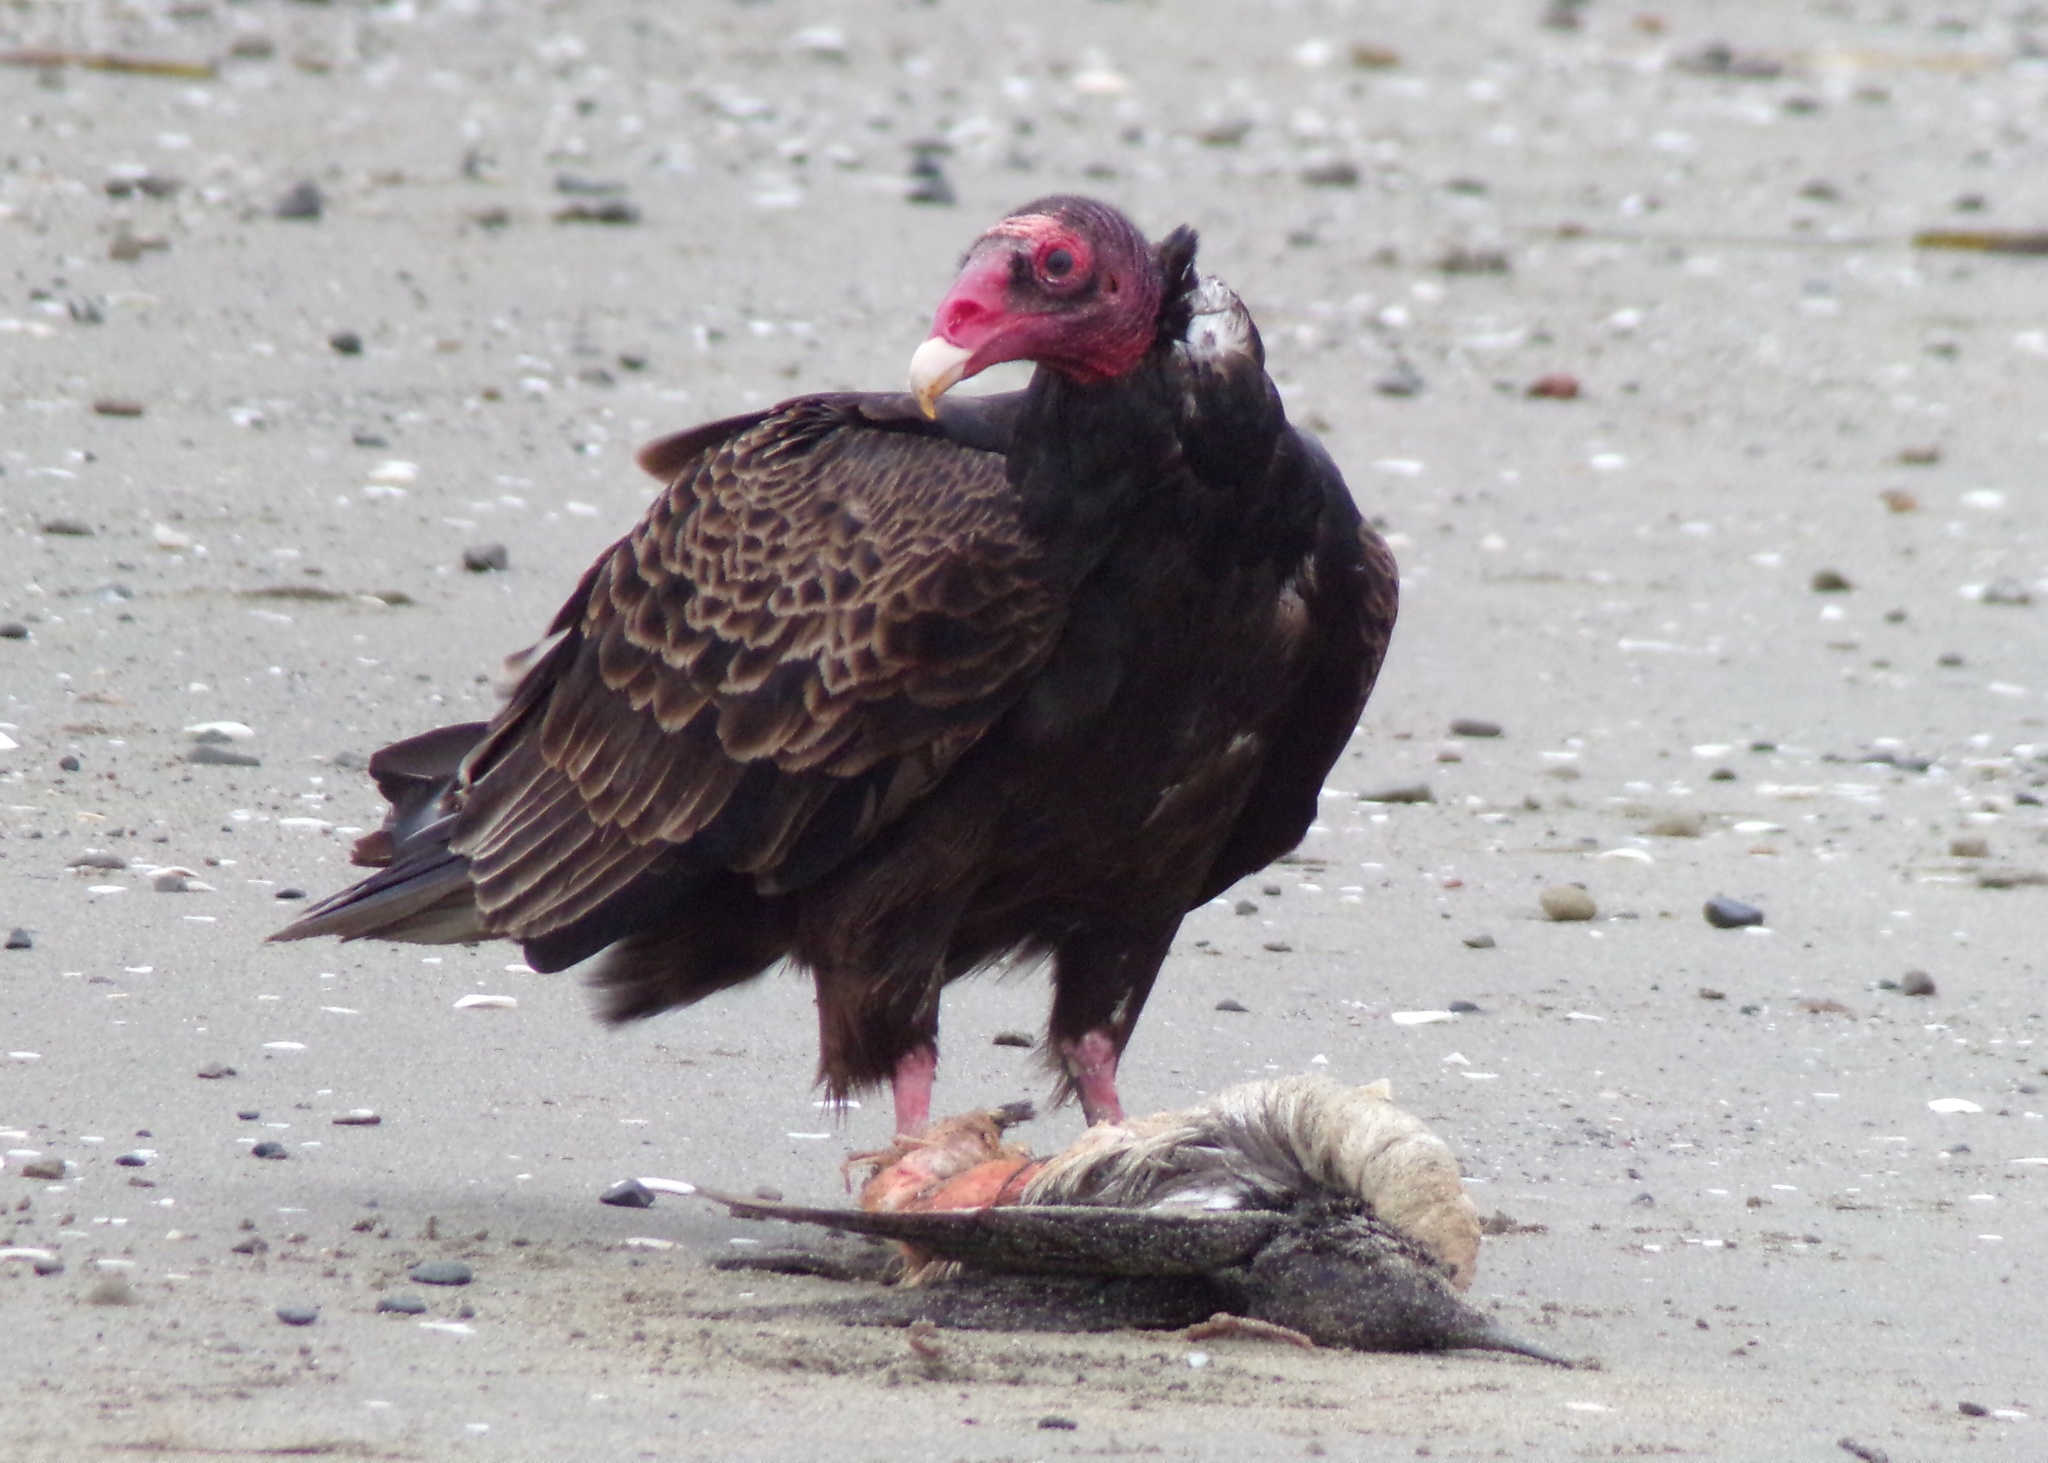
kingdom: Animalia
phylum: Chordata
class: Aves
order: Accipitriformes
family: Cathartidae
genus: Cathartes
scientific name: Cathartes aura
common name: Turkey vulture
